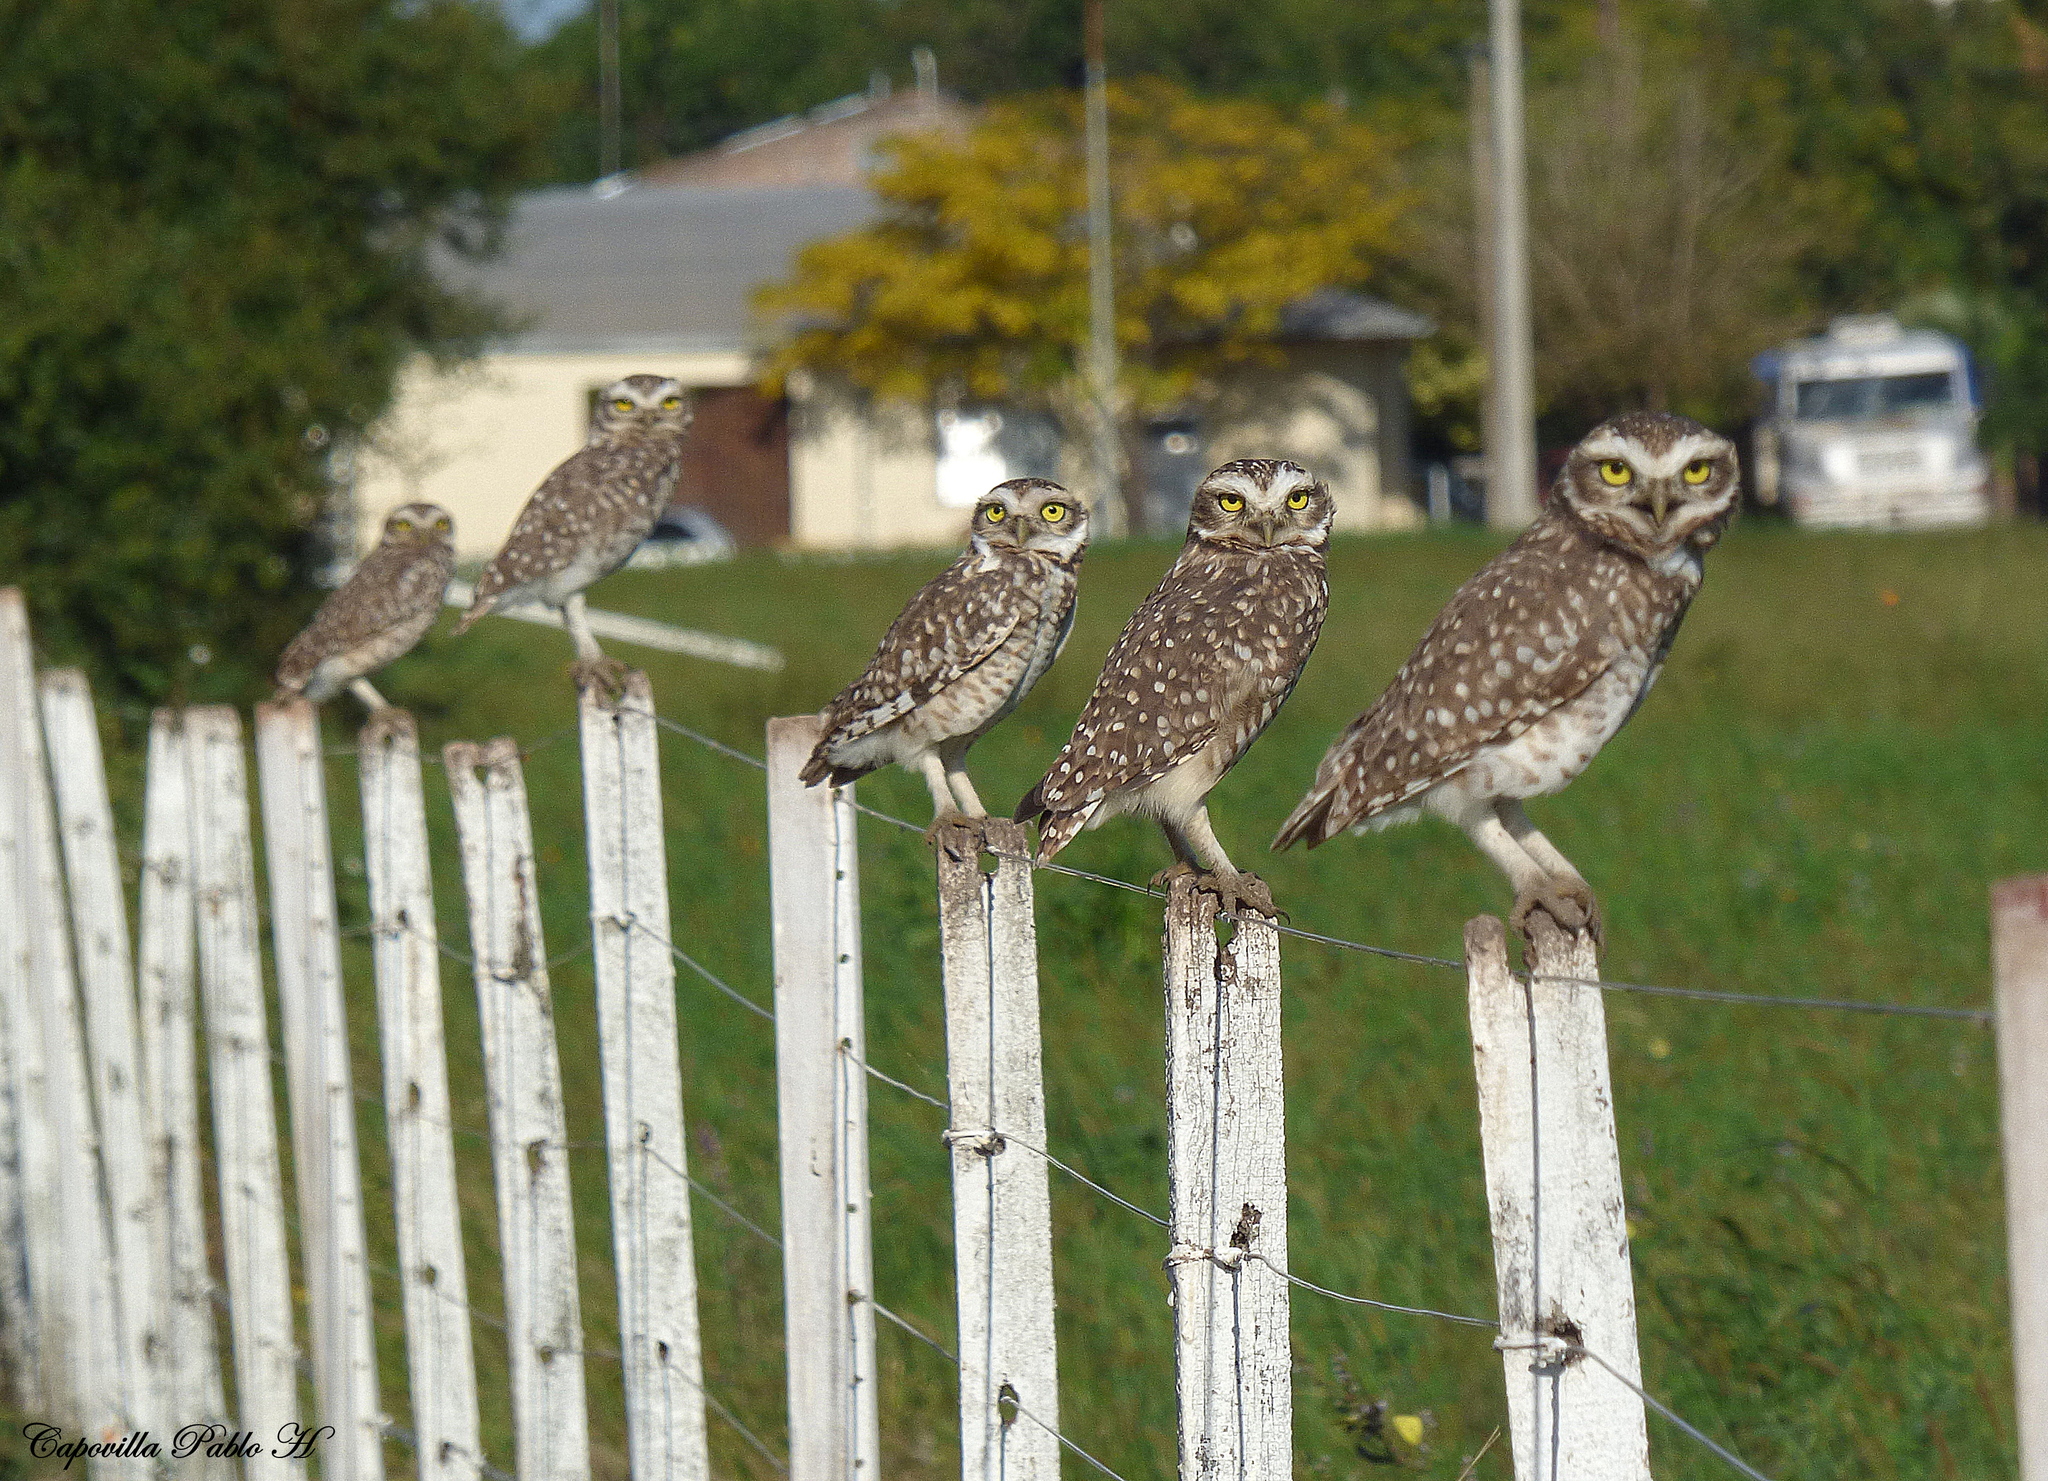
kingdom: Animalia
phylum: Chordata
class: Aves
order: Strigiformes
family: Strigidae
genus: Athene
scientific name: Athene cunicularia
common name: Burrowing owl
